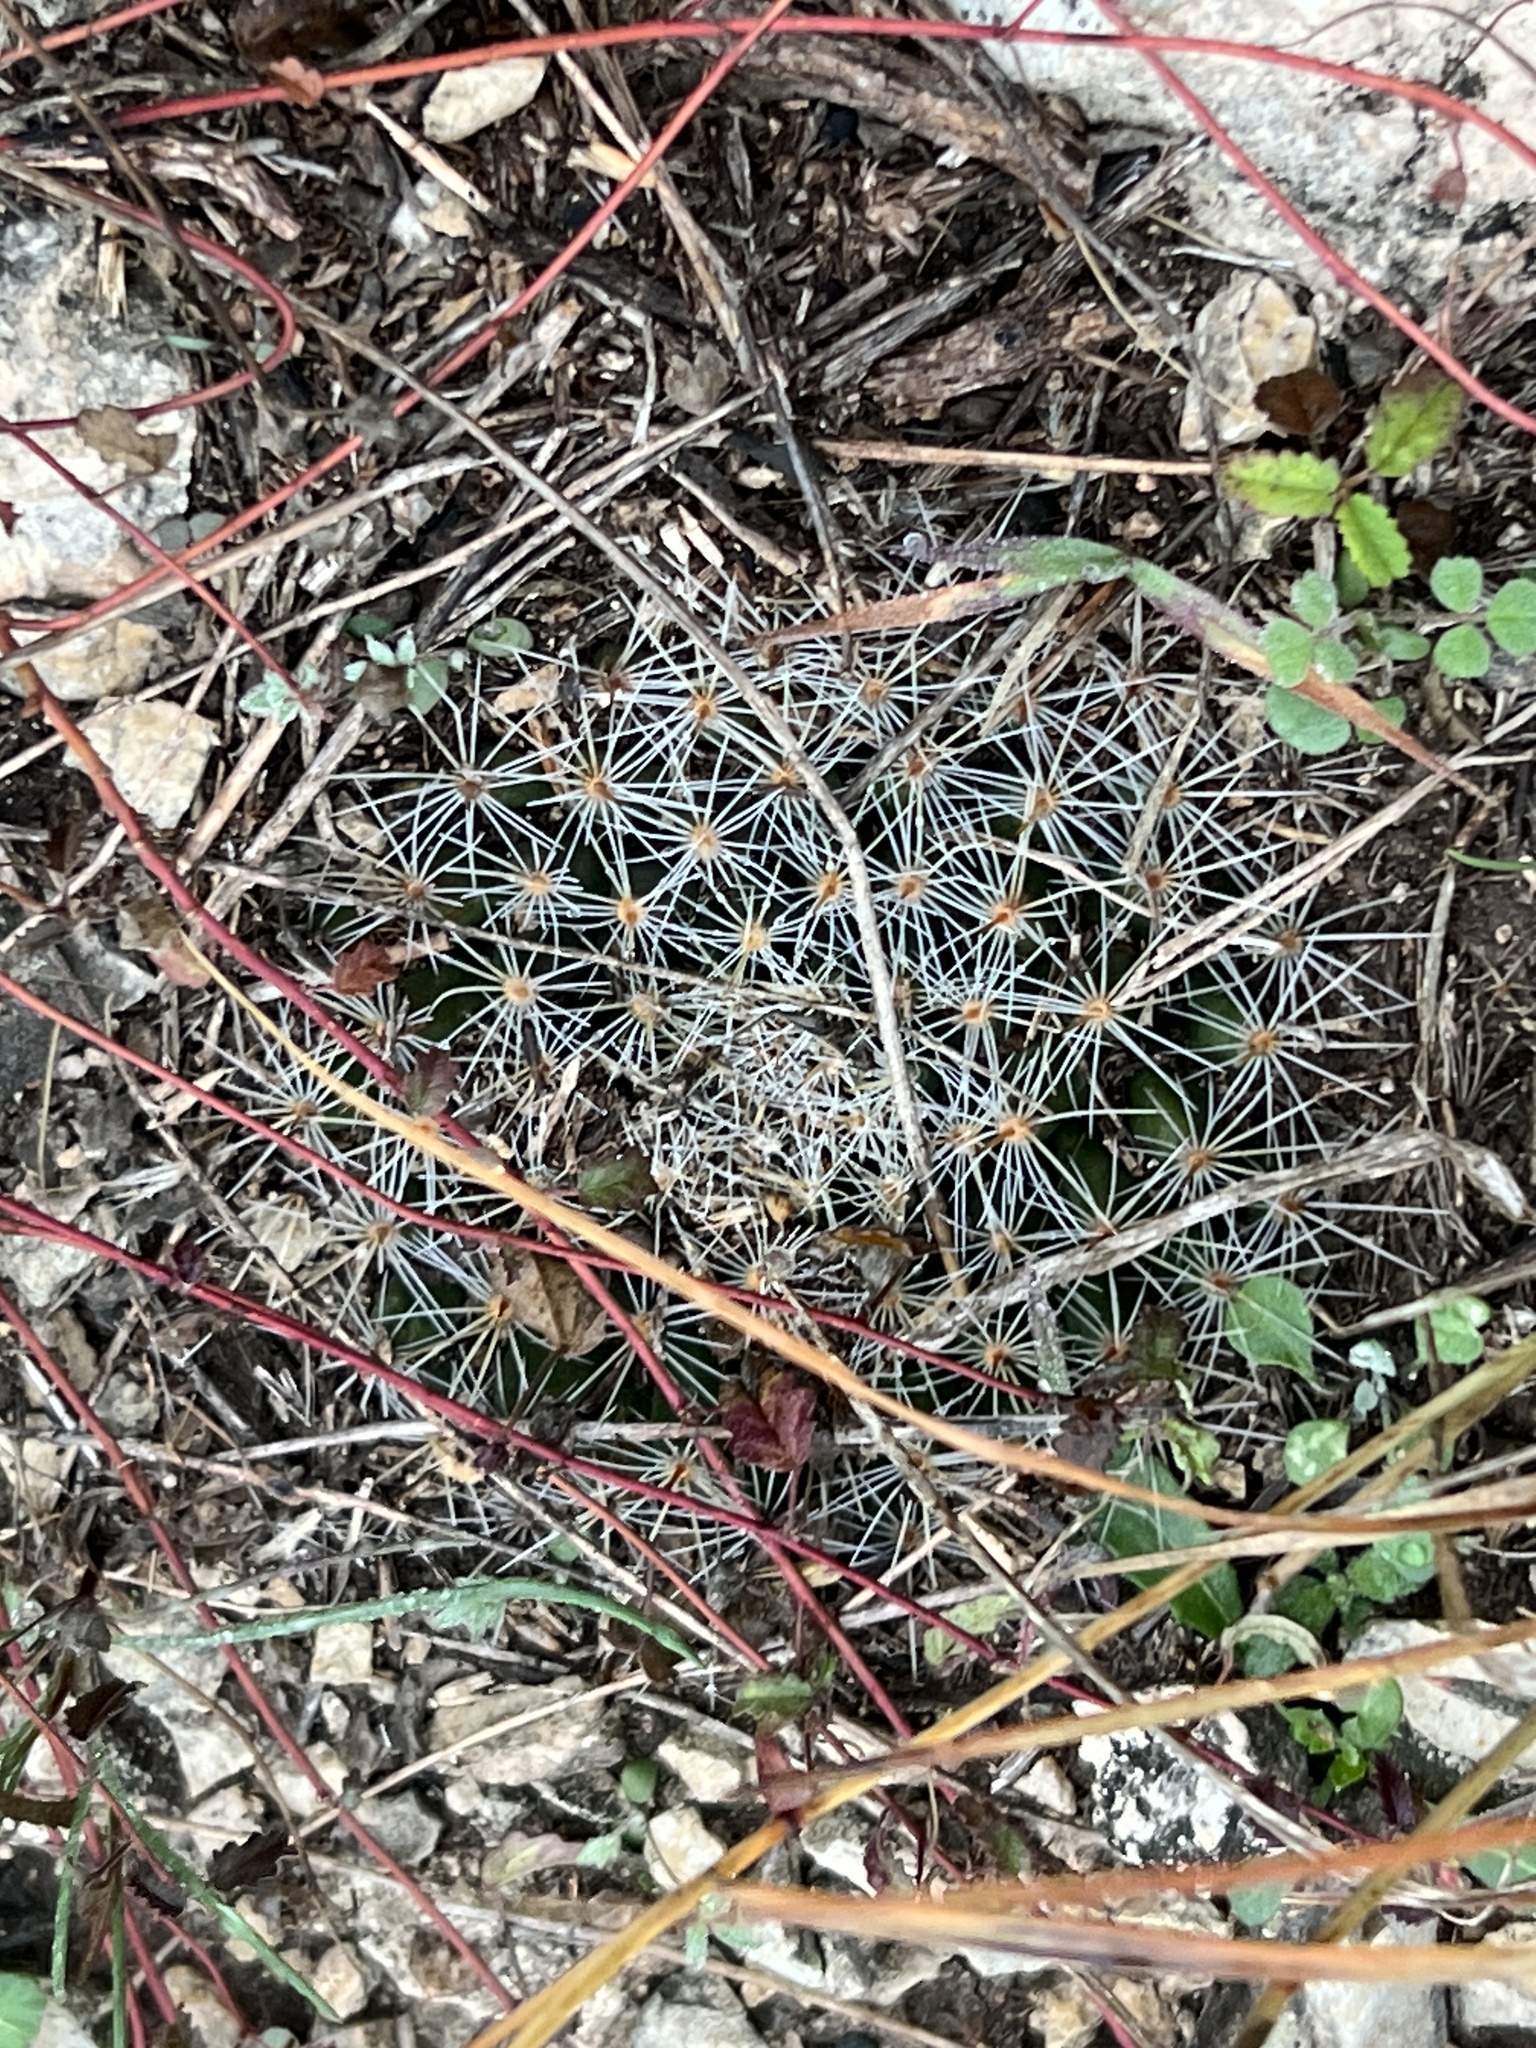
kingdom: Plantae
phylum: Tracheophyta
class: Magnoliopsida
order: Caryophyllales
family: Cactaceae
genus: Mammillaria
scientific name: Mammillaria heyderi
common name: Little nipple cactus
